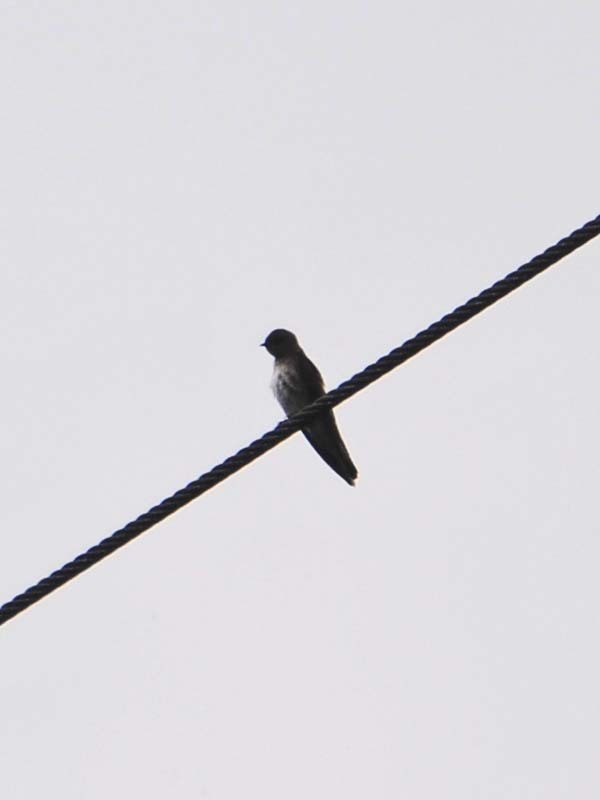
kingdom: Animalia
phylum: Chordata
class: Aves
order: Passeriformes
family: Hirundinidae
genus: Stelgidopteryx
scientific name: Stelgidopteryx serripennis
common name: Northern rough-winged swallow
